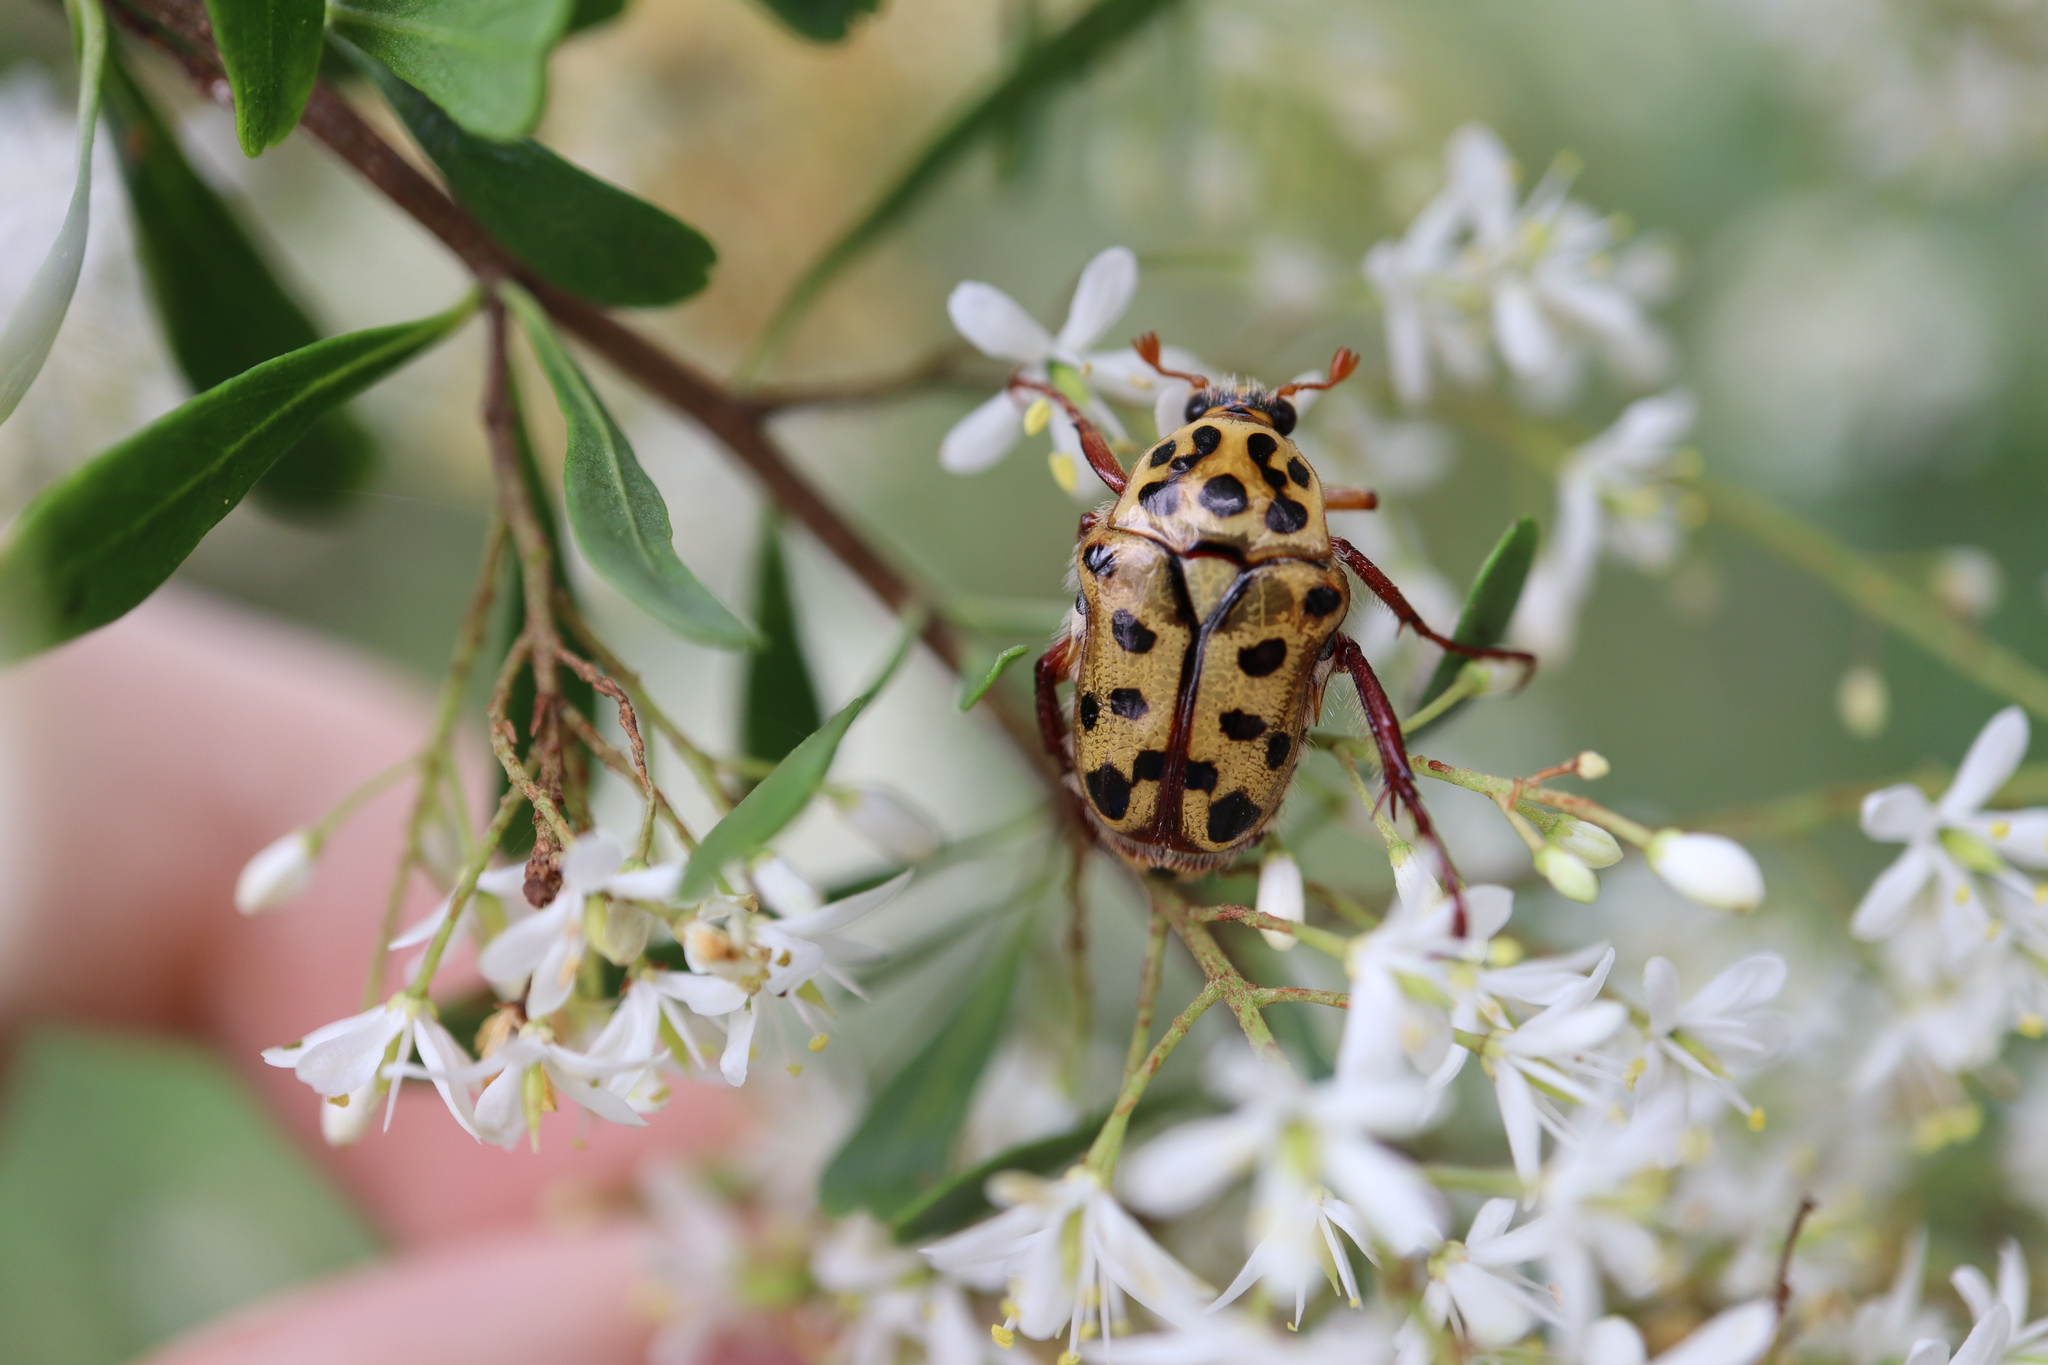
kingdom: Animalia
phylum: Arthropoda
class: Insecta
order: Coleoptera
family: Scarabaeidae
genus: Neorrhina
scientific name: Neorrhina punctatum
